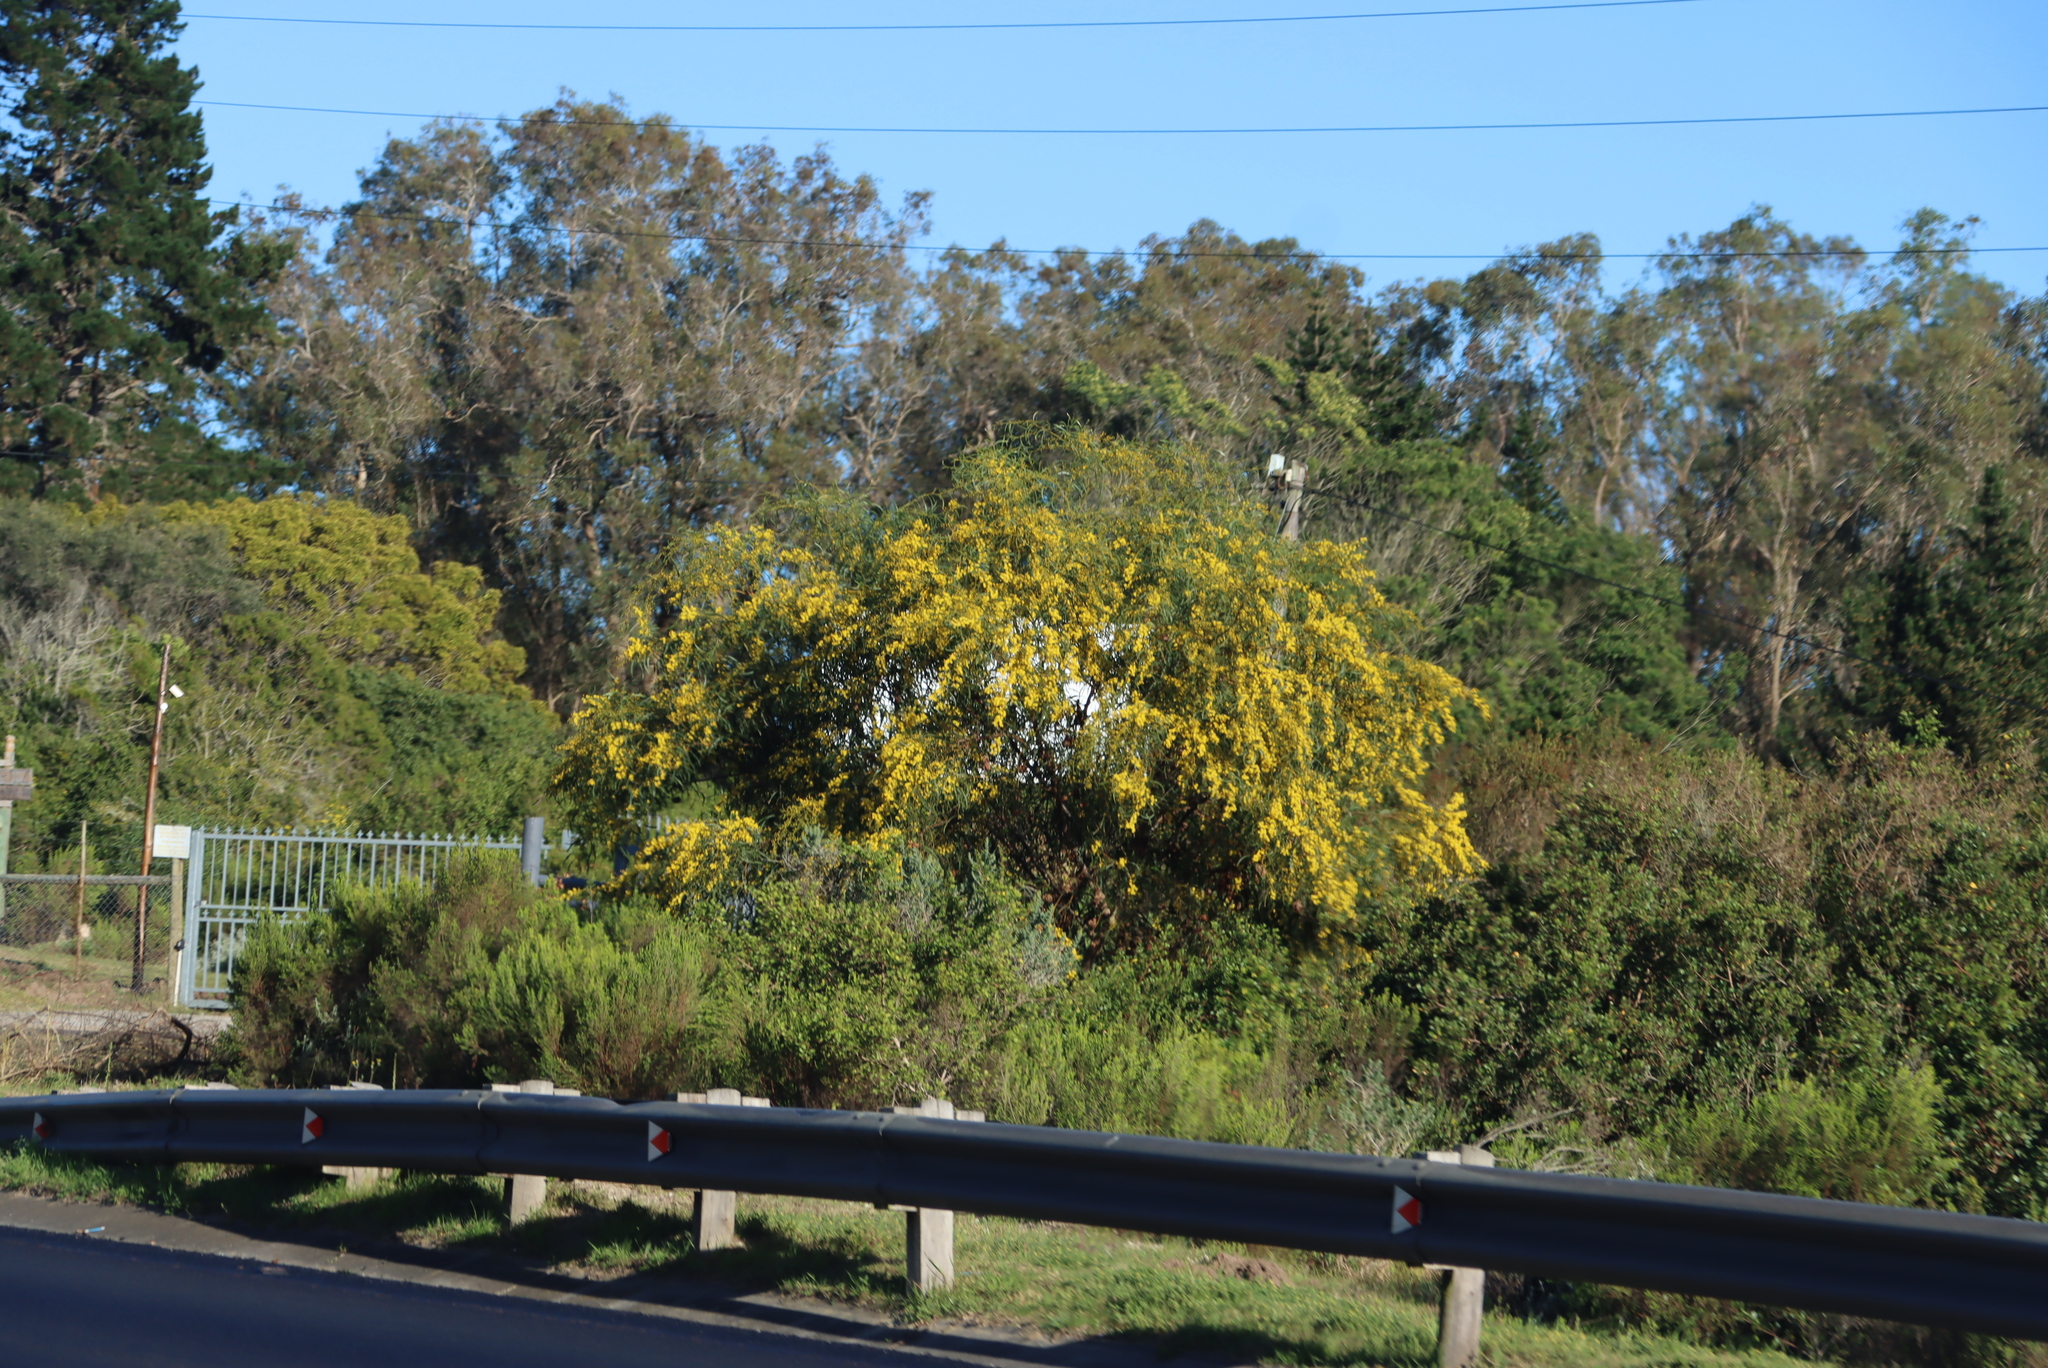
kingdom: Plantae
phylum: Tracheophyta
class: Magnoliopsida
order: Fabales
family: Fabaceae
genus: Acacia
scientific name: Acacia saligna
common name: Orange wattle
